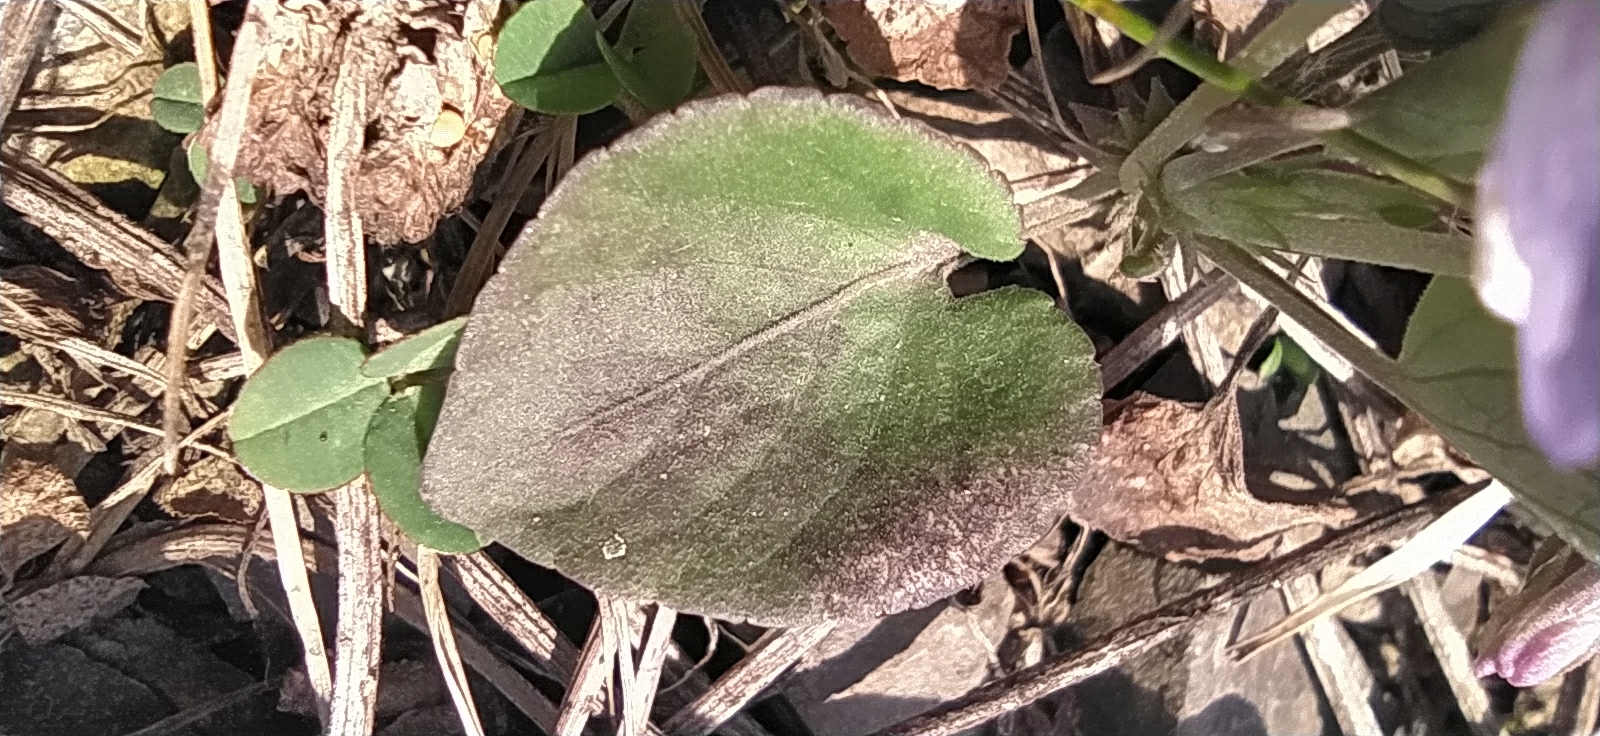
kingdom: Plantae
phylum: Tracheophyta
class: Magnoliopsida
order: Malpighiales
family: Violaceae
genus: Viola
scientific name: Viola rupestris
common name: Teesdale violet
